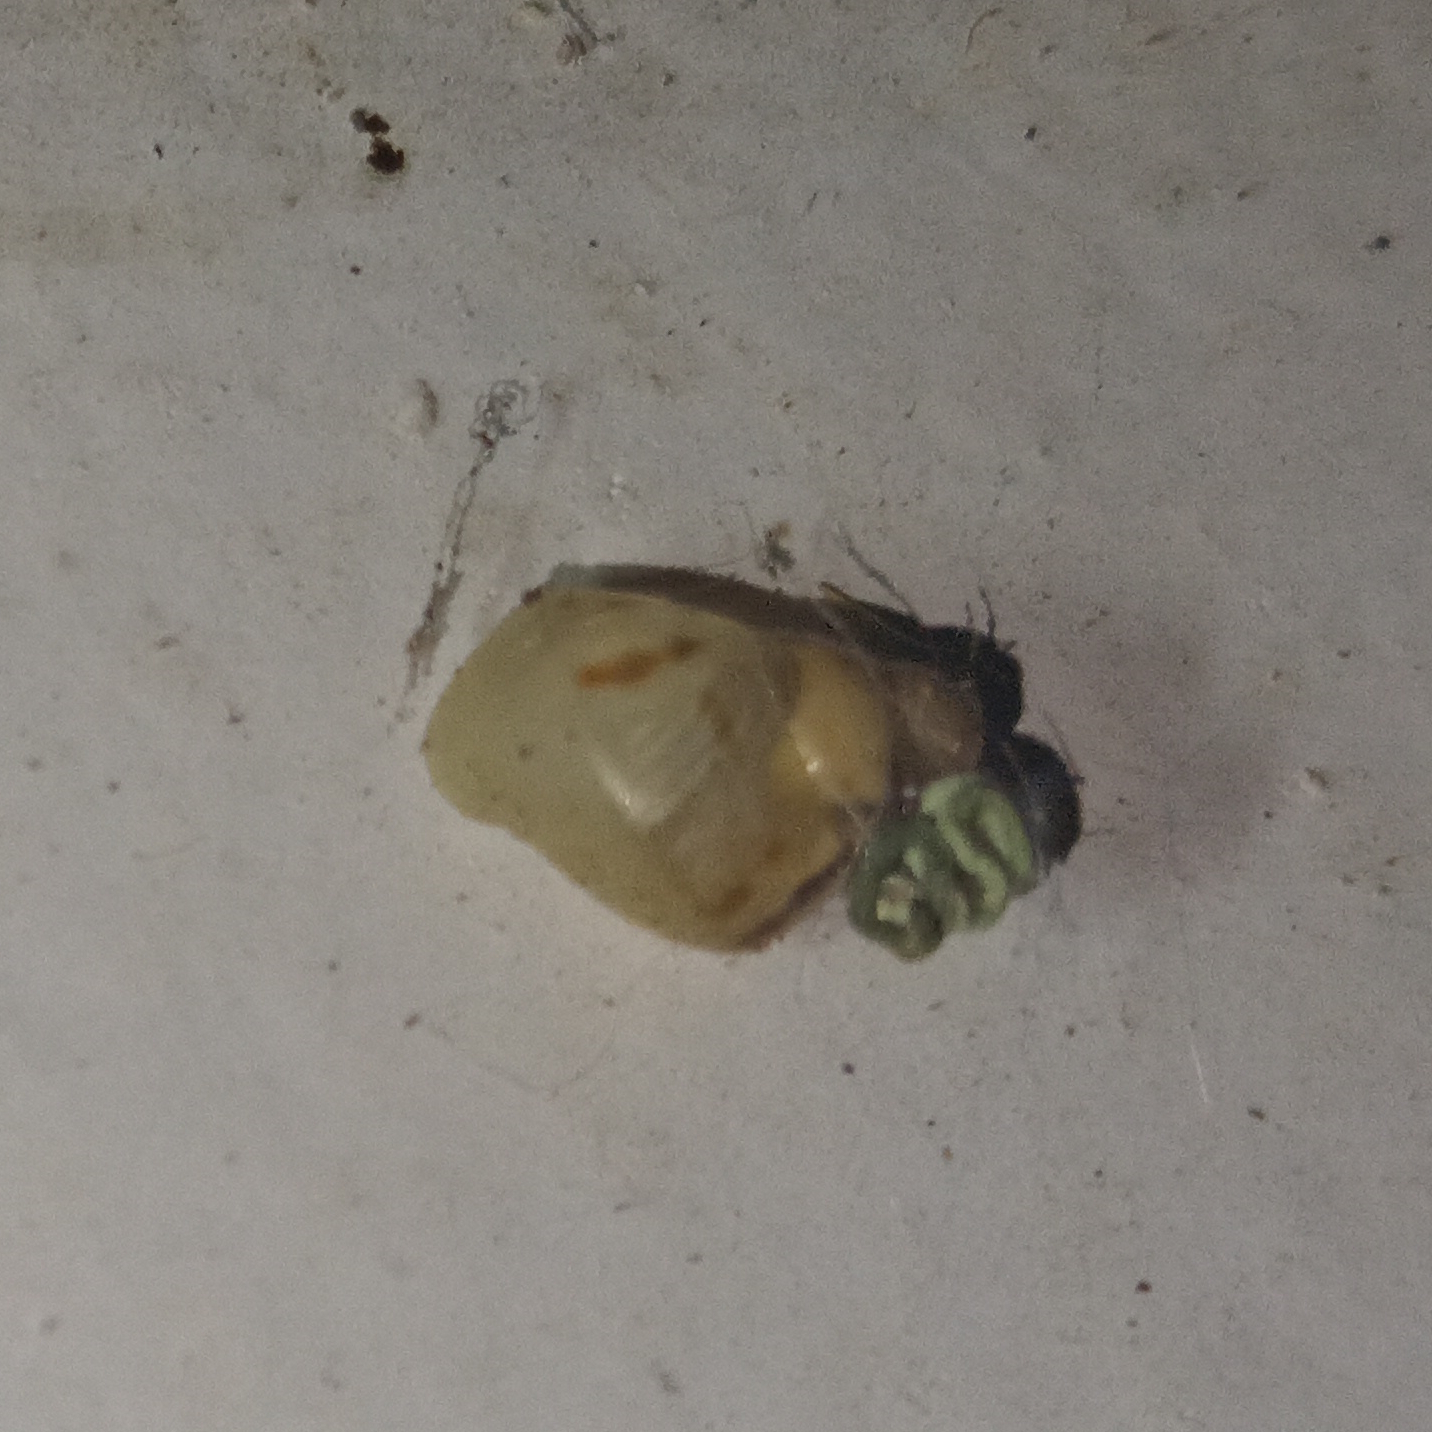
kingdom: Animalia
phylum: Mollusca
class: Gastropoda
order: Stylommatophora
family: Bulimulidae
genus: Drymaeus
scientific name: Drymaeus papyraceus
